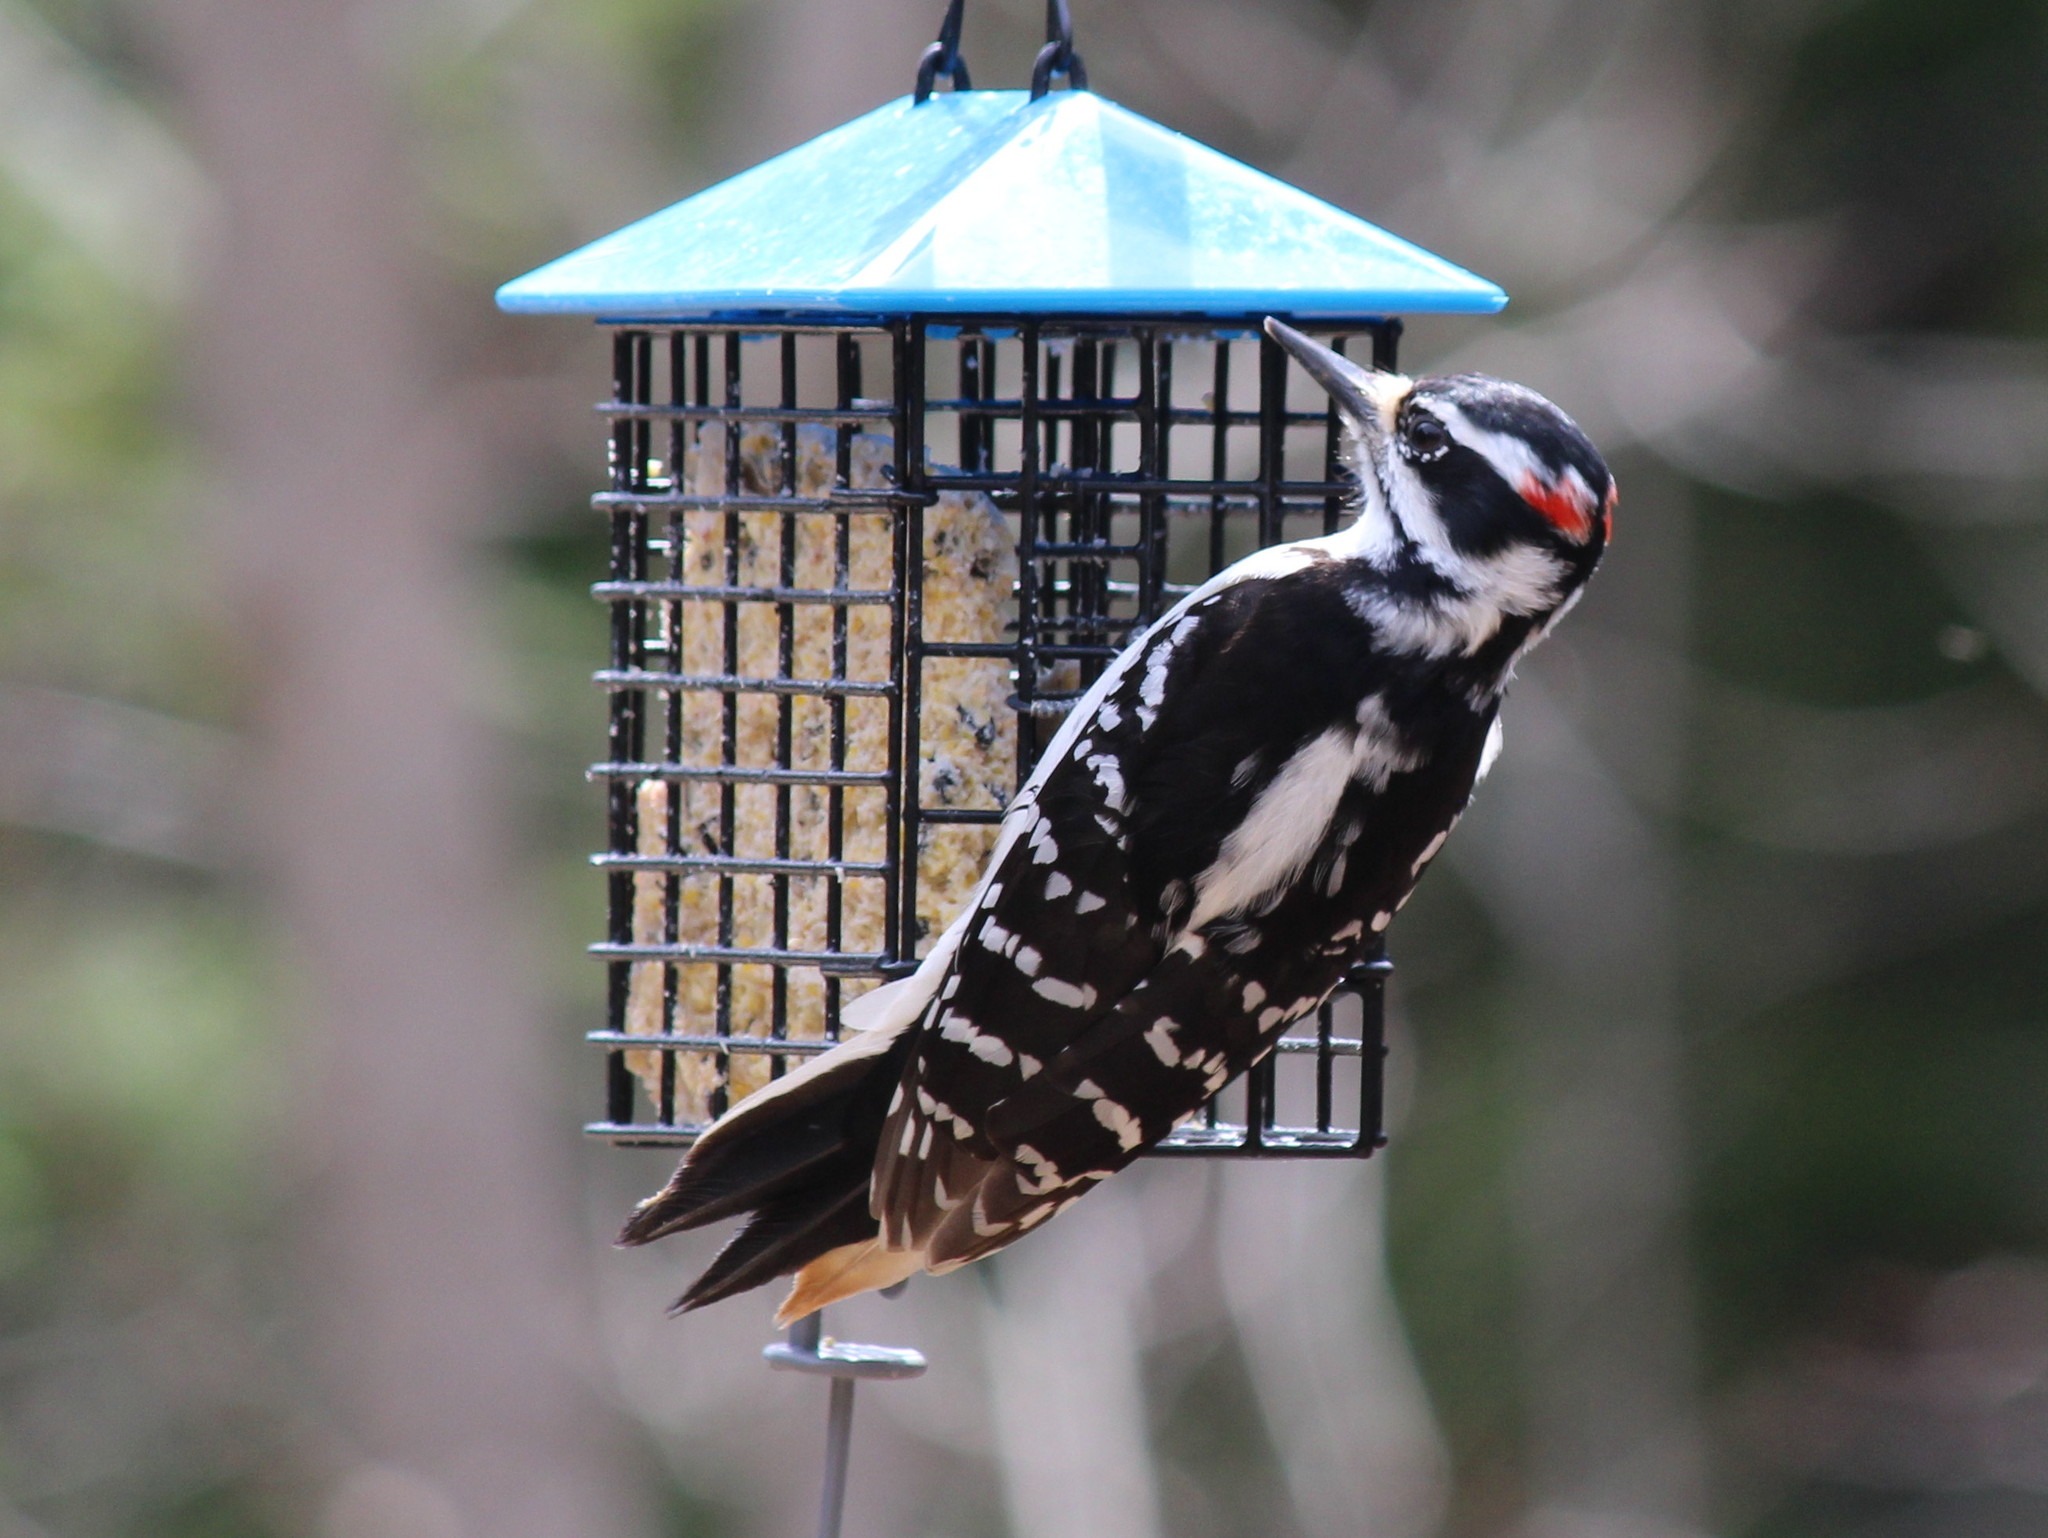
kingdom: Animalia
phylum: Chordata
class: Aves
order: Piciformes
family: Picidae
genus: Leuconotopicus
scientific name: Leuconotopicus villosus
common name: Hairy woodpecker
